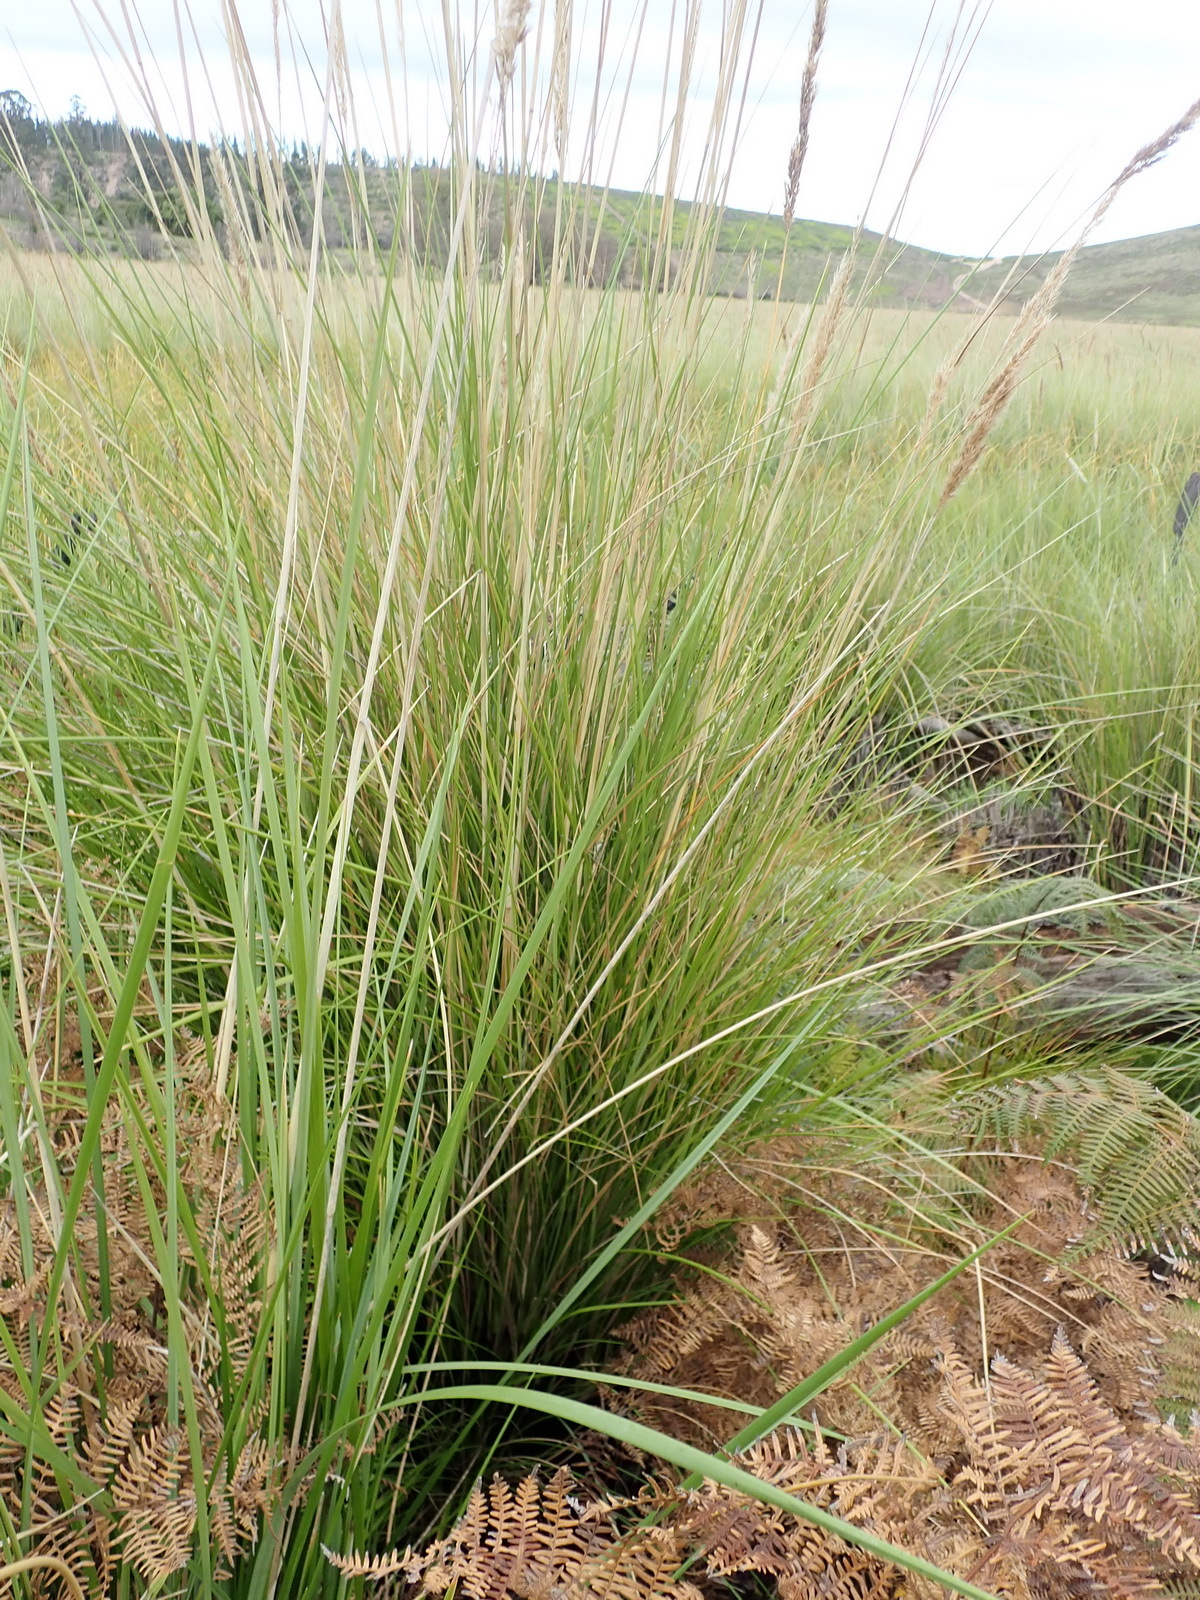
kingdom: Plantae
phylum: Tracheophyta
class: Liliopsida
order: Poales
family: Poaceae
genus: Capeochloa
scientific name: Capeochloa cincta
